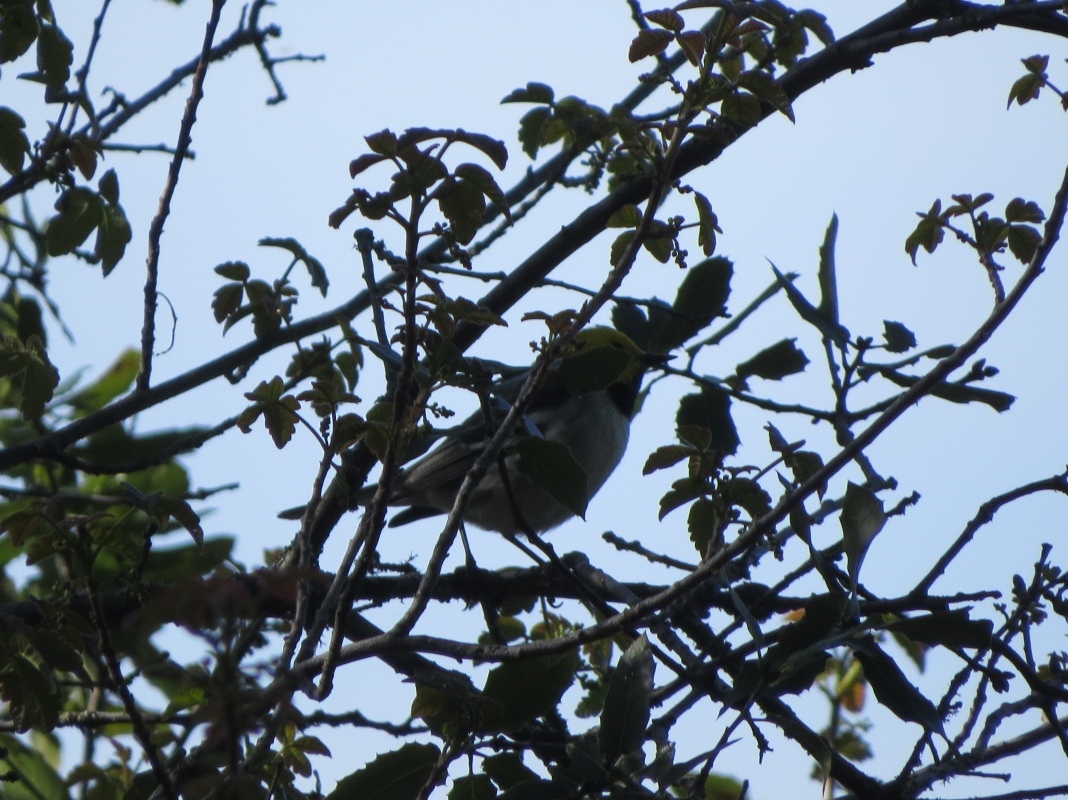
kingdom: Animalia
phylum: Chordata
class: Aves
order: Passeriformes
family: Parulidae
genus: Setophaga
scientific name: Setophaga occidentalis
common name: Hermit warbler
